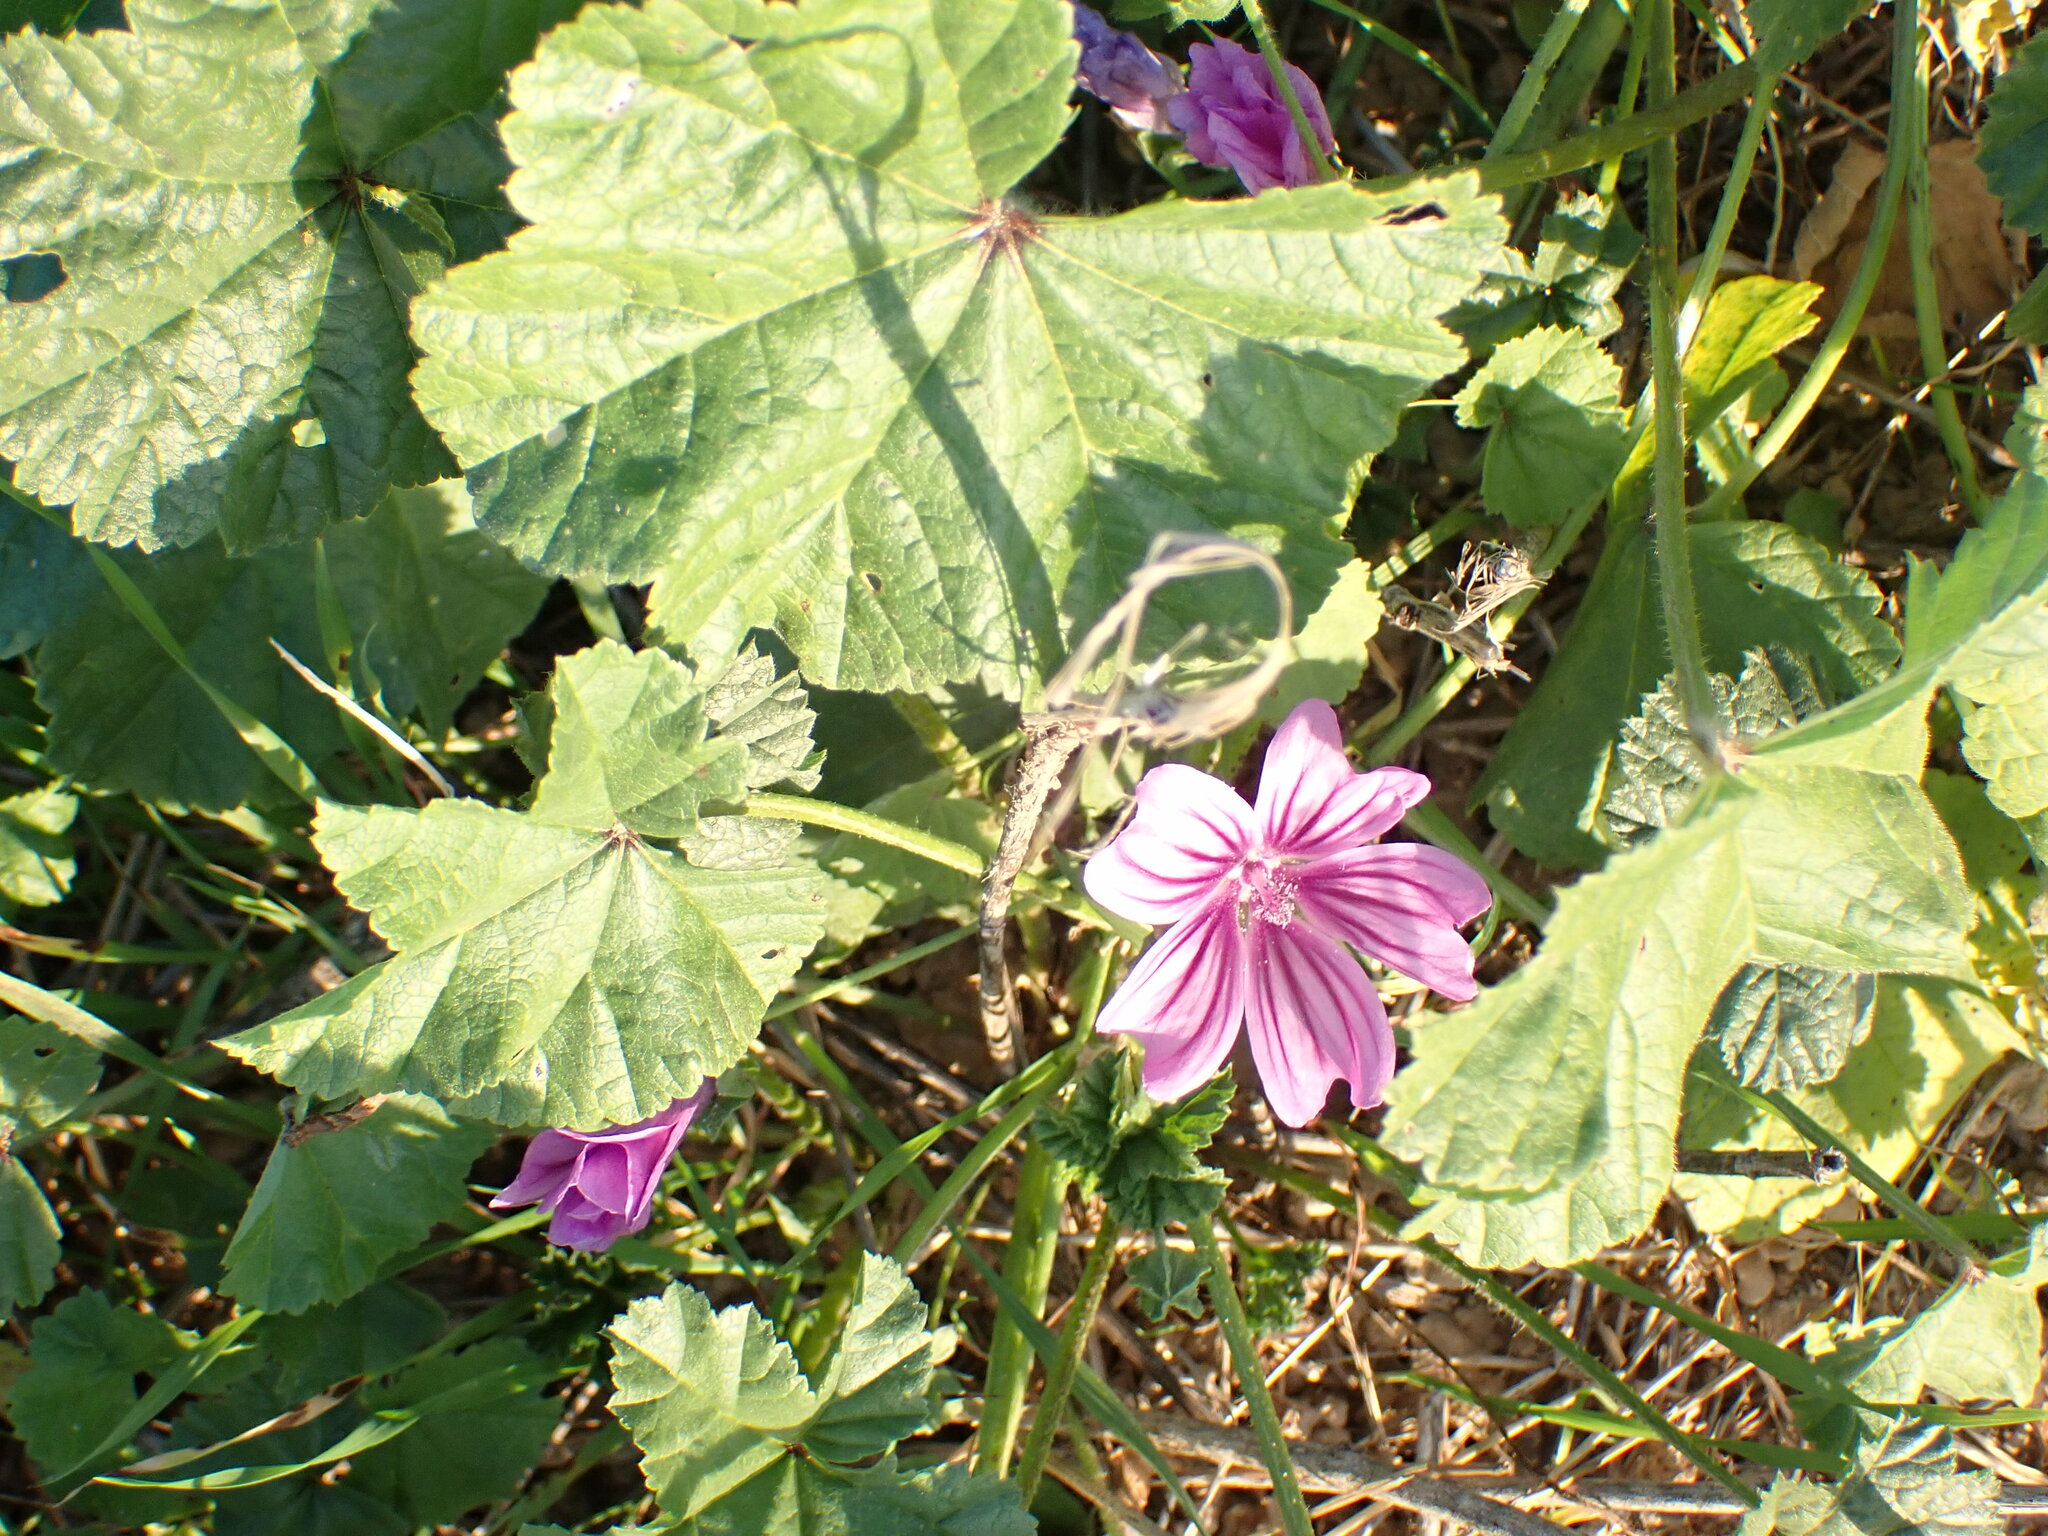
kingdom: Plantae
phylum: Tracheophyta
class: Magnoliopsida
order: Malvales
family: Malvaceae
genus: Malva
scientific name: Malva sylvestris
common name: Common mallow
